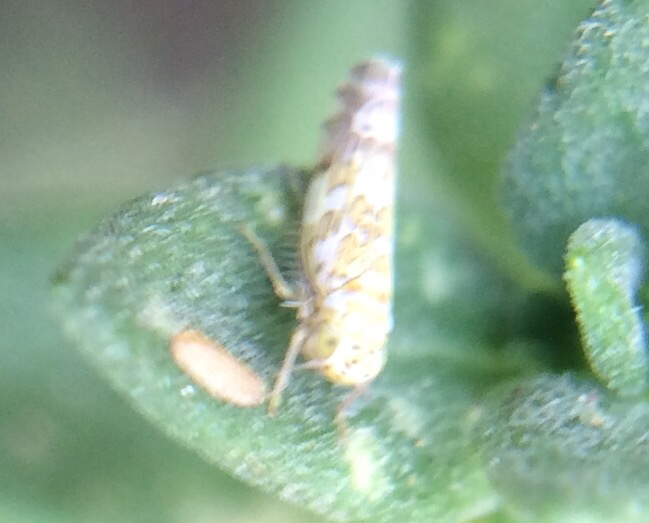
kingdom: Animalia
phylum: Arthropoda
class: Insecta
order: Hemiptera
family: Cicadellidae
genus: Eupteryx
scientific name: Eupteryx decemnotata
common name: Ligurian leafhopper
